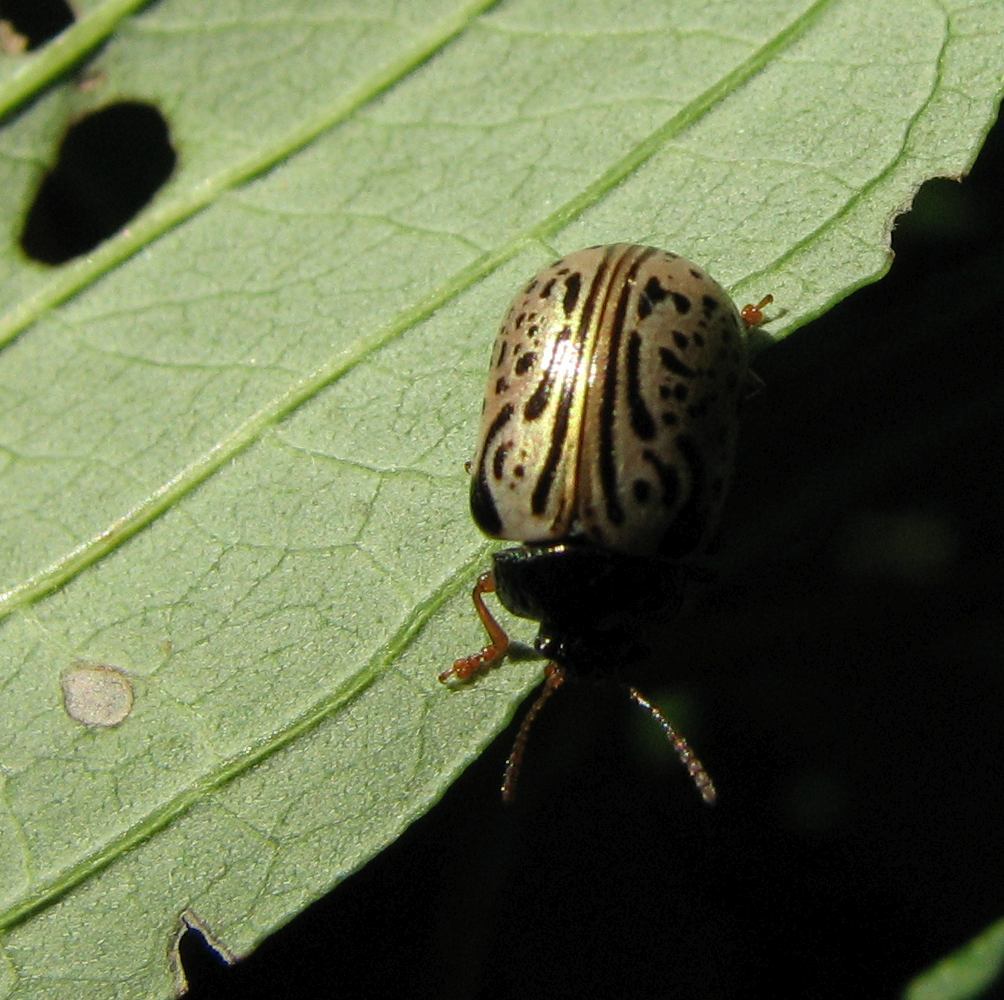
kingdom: Animalia
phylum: Arthropoda
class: Insecta
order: Coleoptera
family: Chrysomelidae
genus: Calligrapha
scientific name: Calligrapha philadelphica
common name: Dogwood leaf beetle
